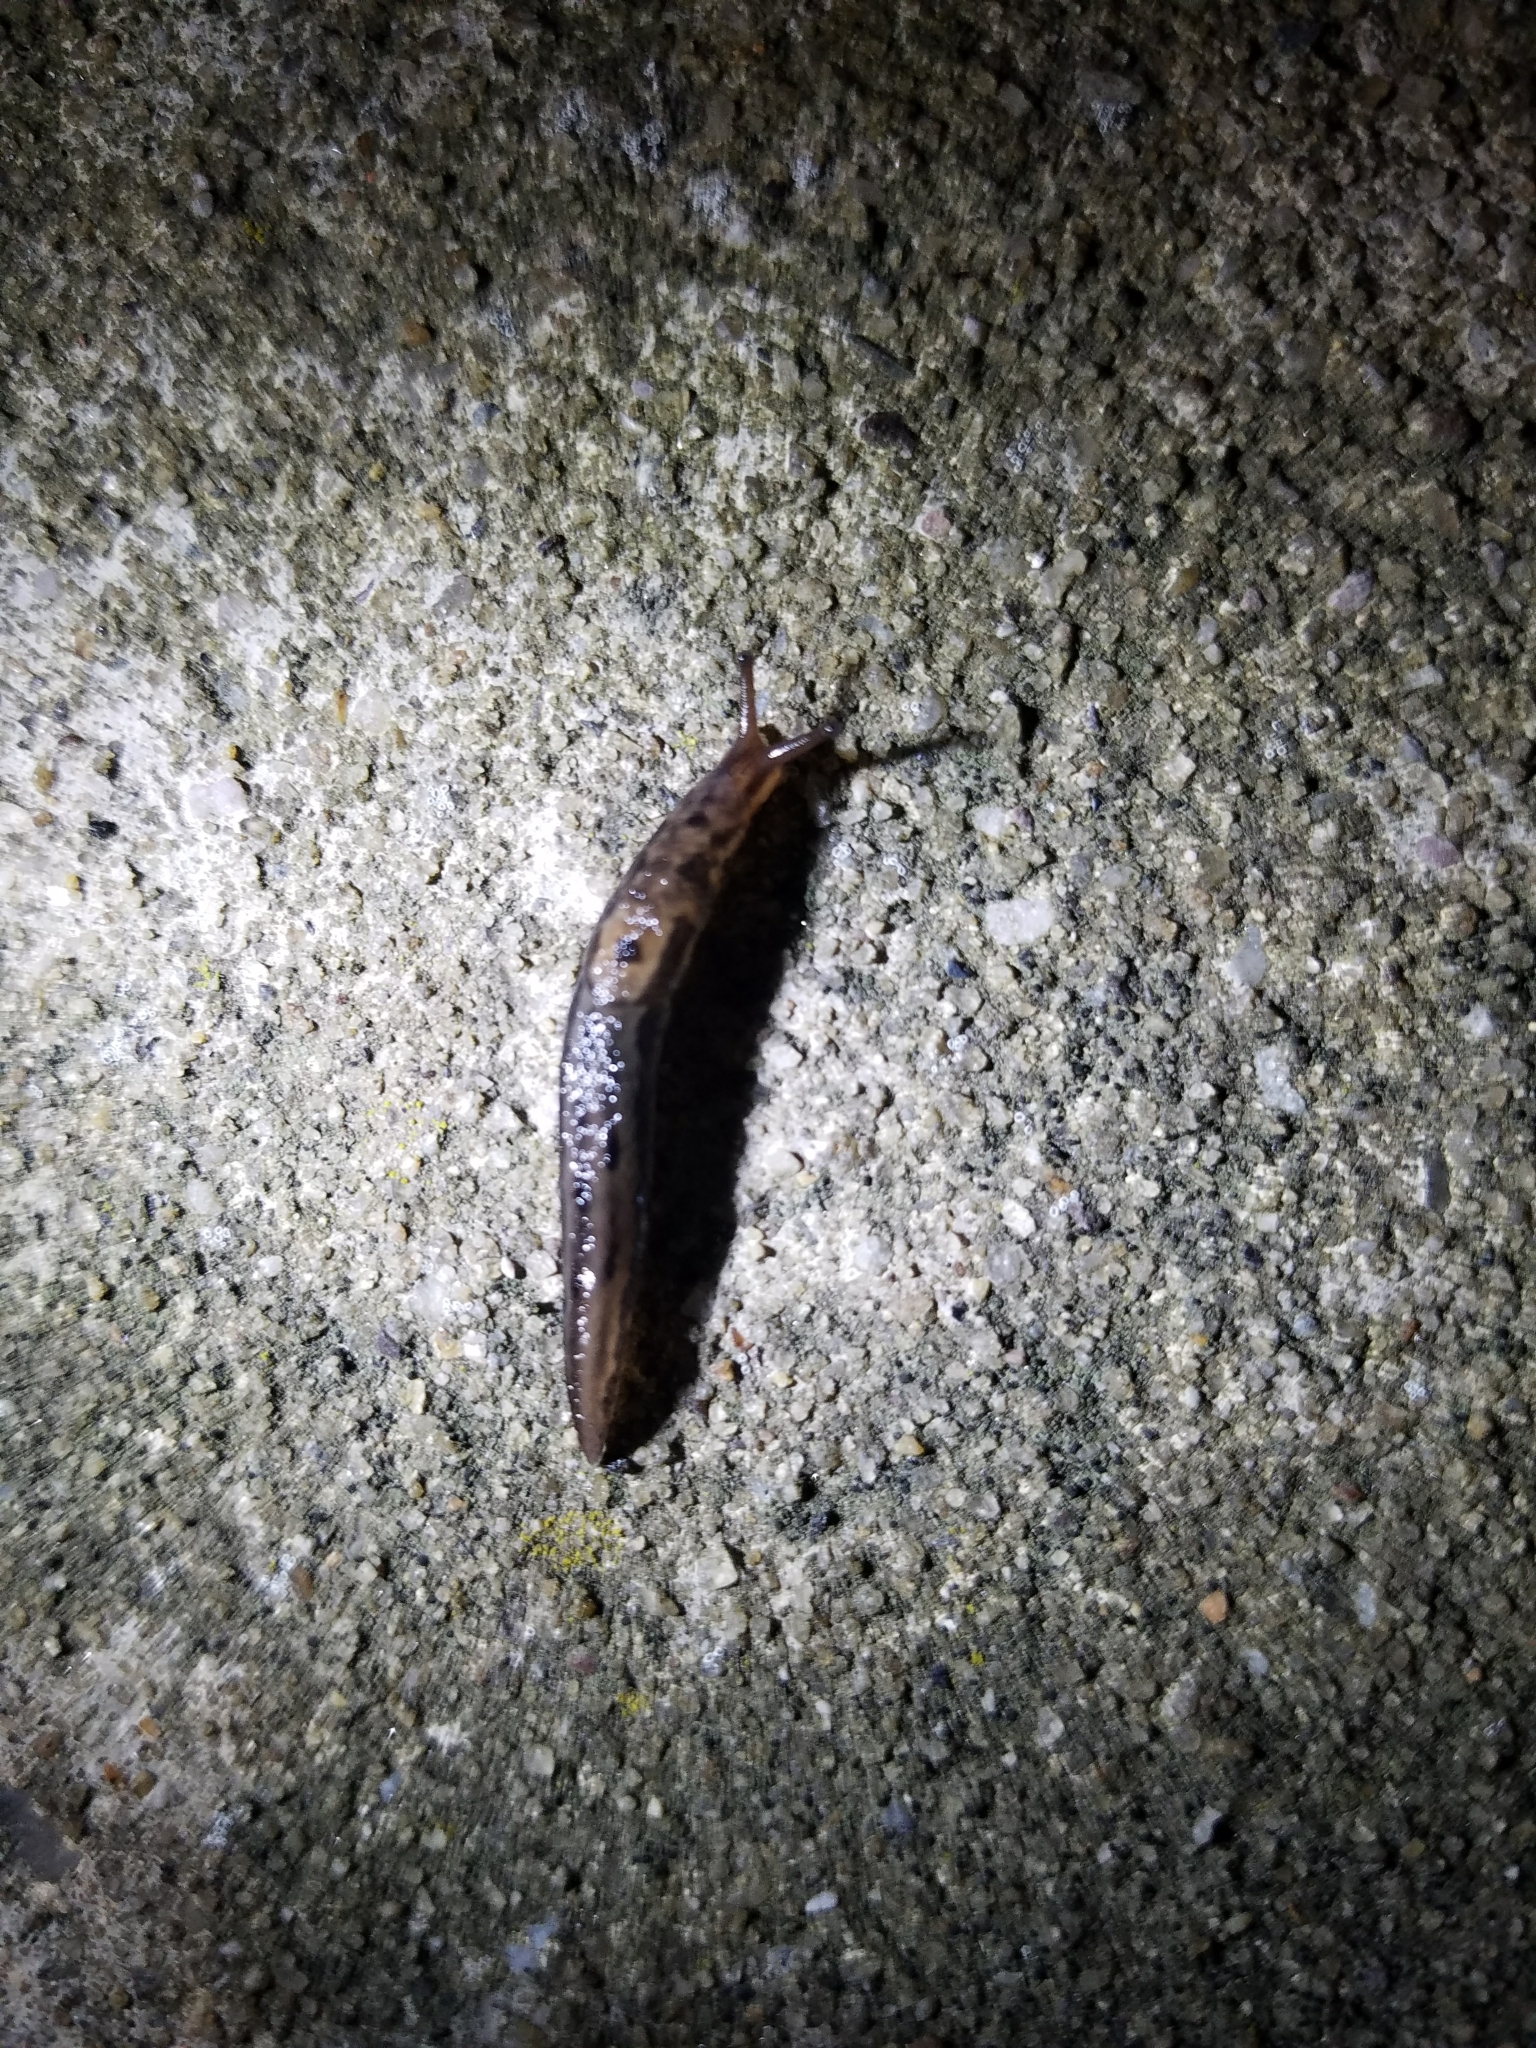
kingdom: Animalia
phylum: Mollusca
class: Gastropoda
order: Stylommatophora
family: Limacidae
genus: Limax
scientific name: Limax maximus
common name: Great grey slug
